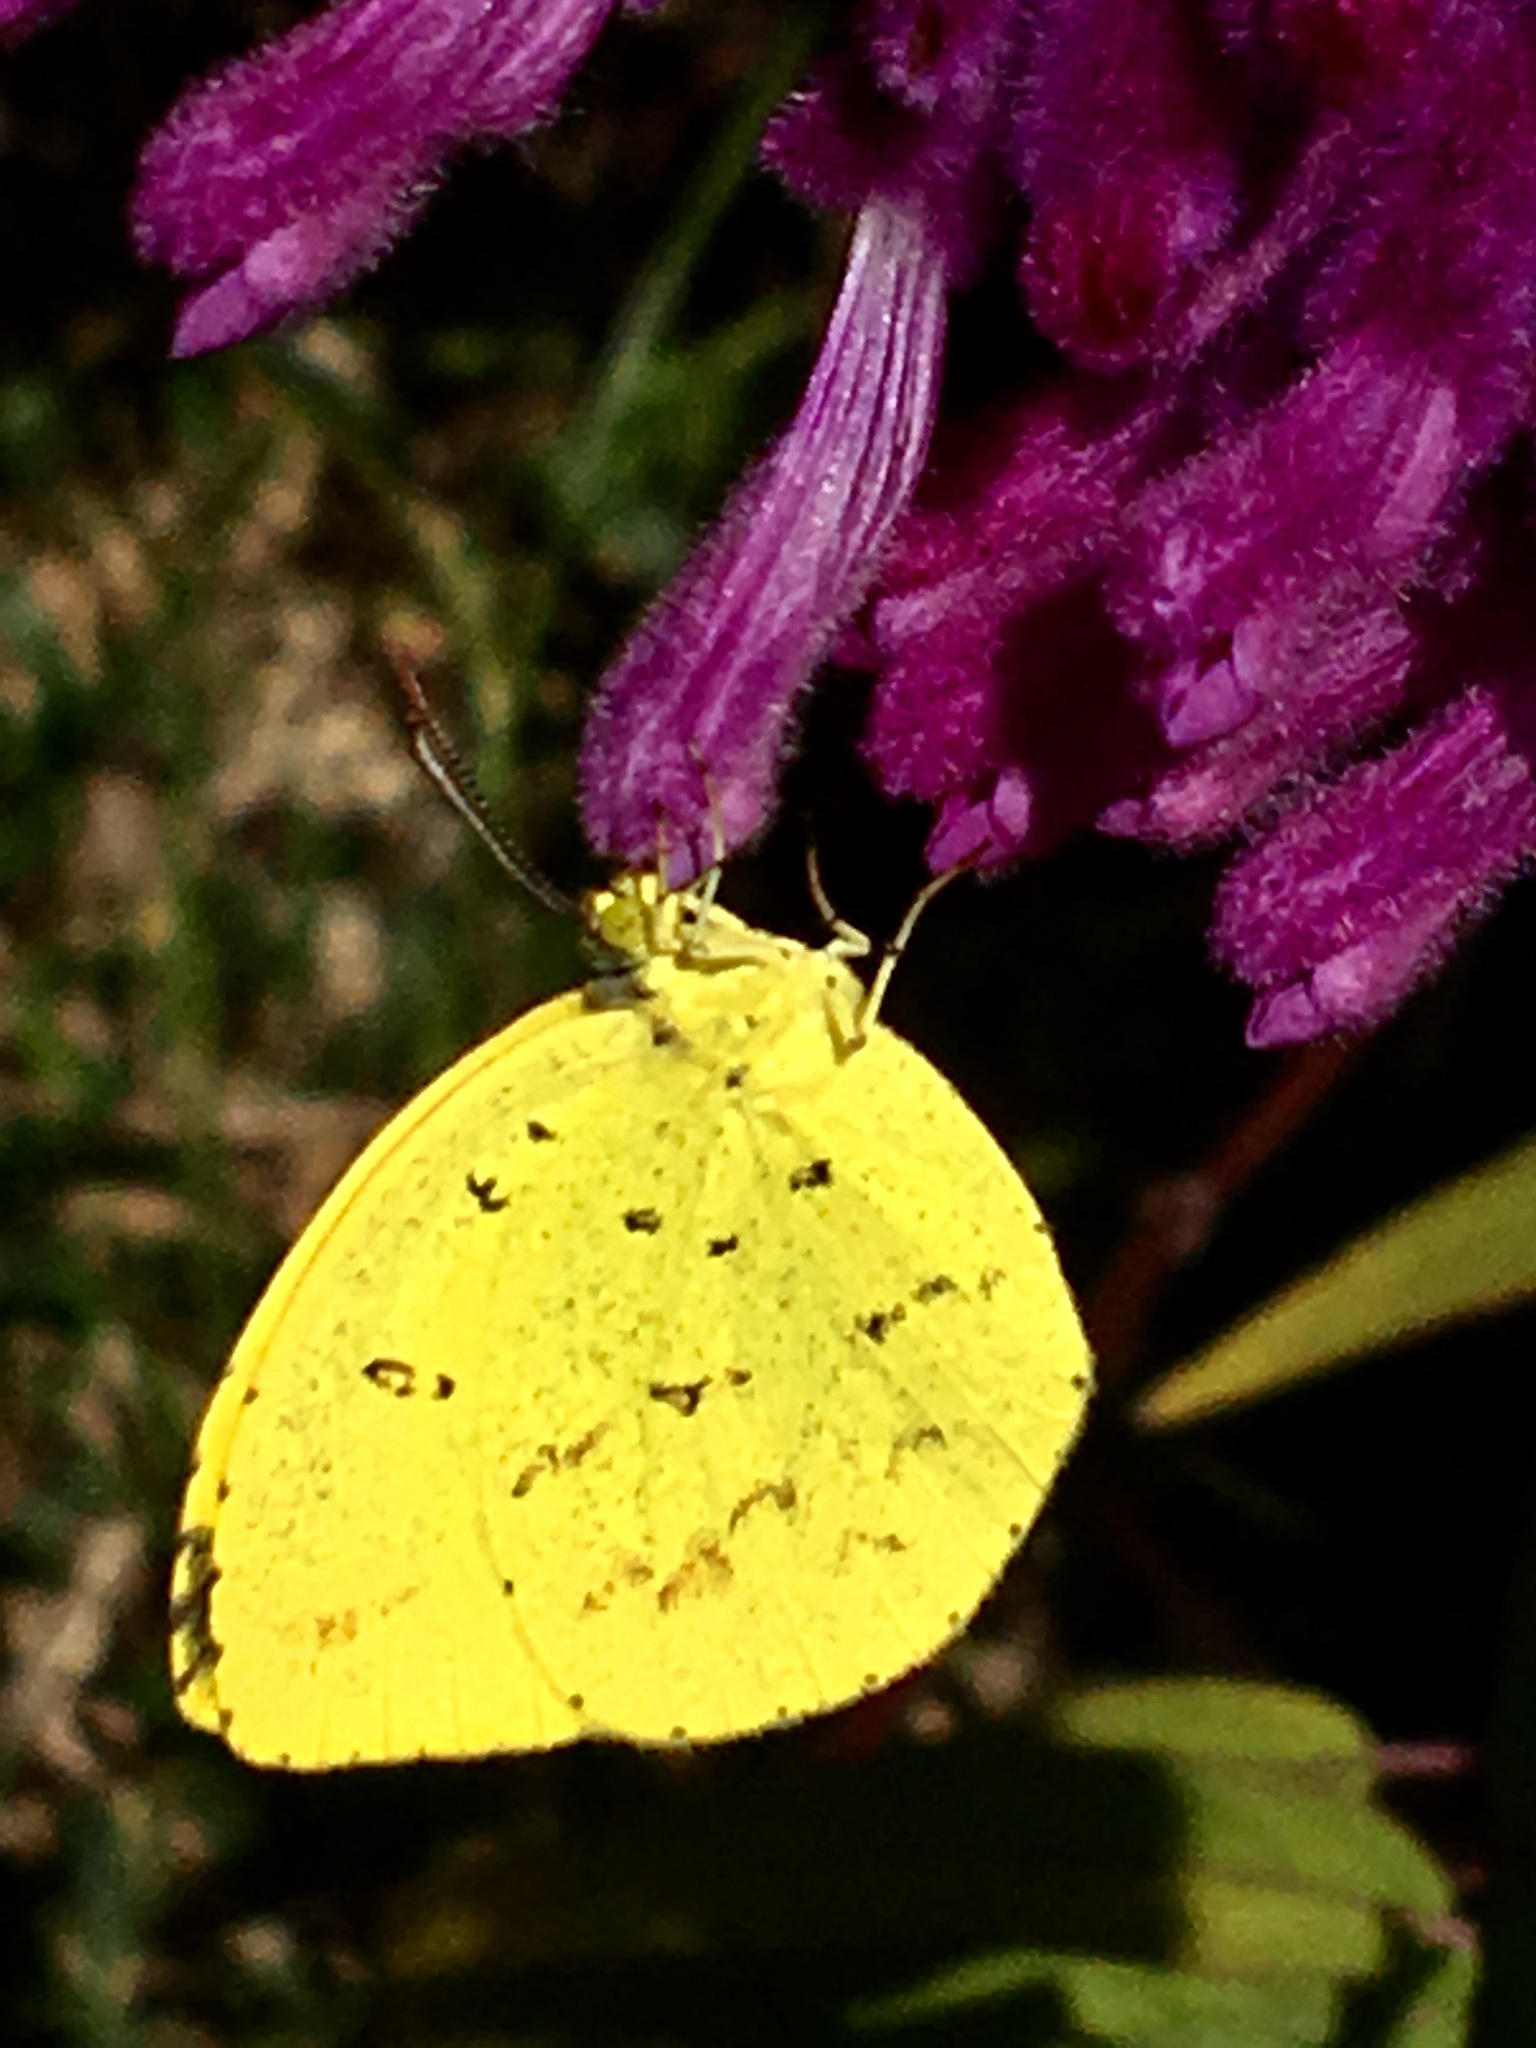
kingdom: Animalia
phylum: Arthropoda
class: Insecta
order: Lepidoptera
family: Pieridae
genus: Eurema
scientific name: Eurema mandarina
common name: Japanese common grass yellow
